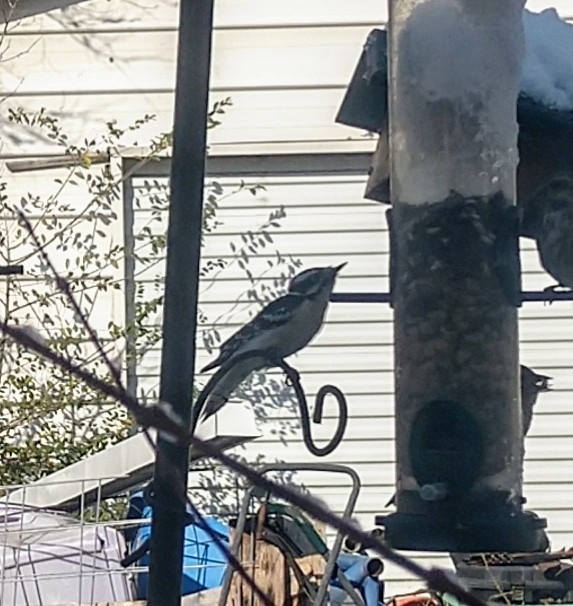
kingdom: Animalia
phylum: Chordata
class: Aves
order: Piciformes
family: Picidae
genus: Dryobates
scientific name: Dryobates pubescens
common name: Downy woodpecker
